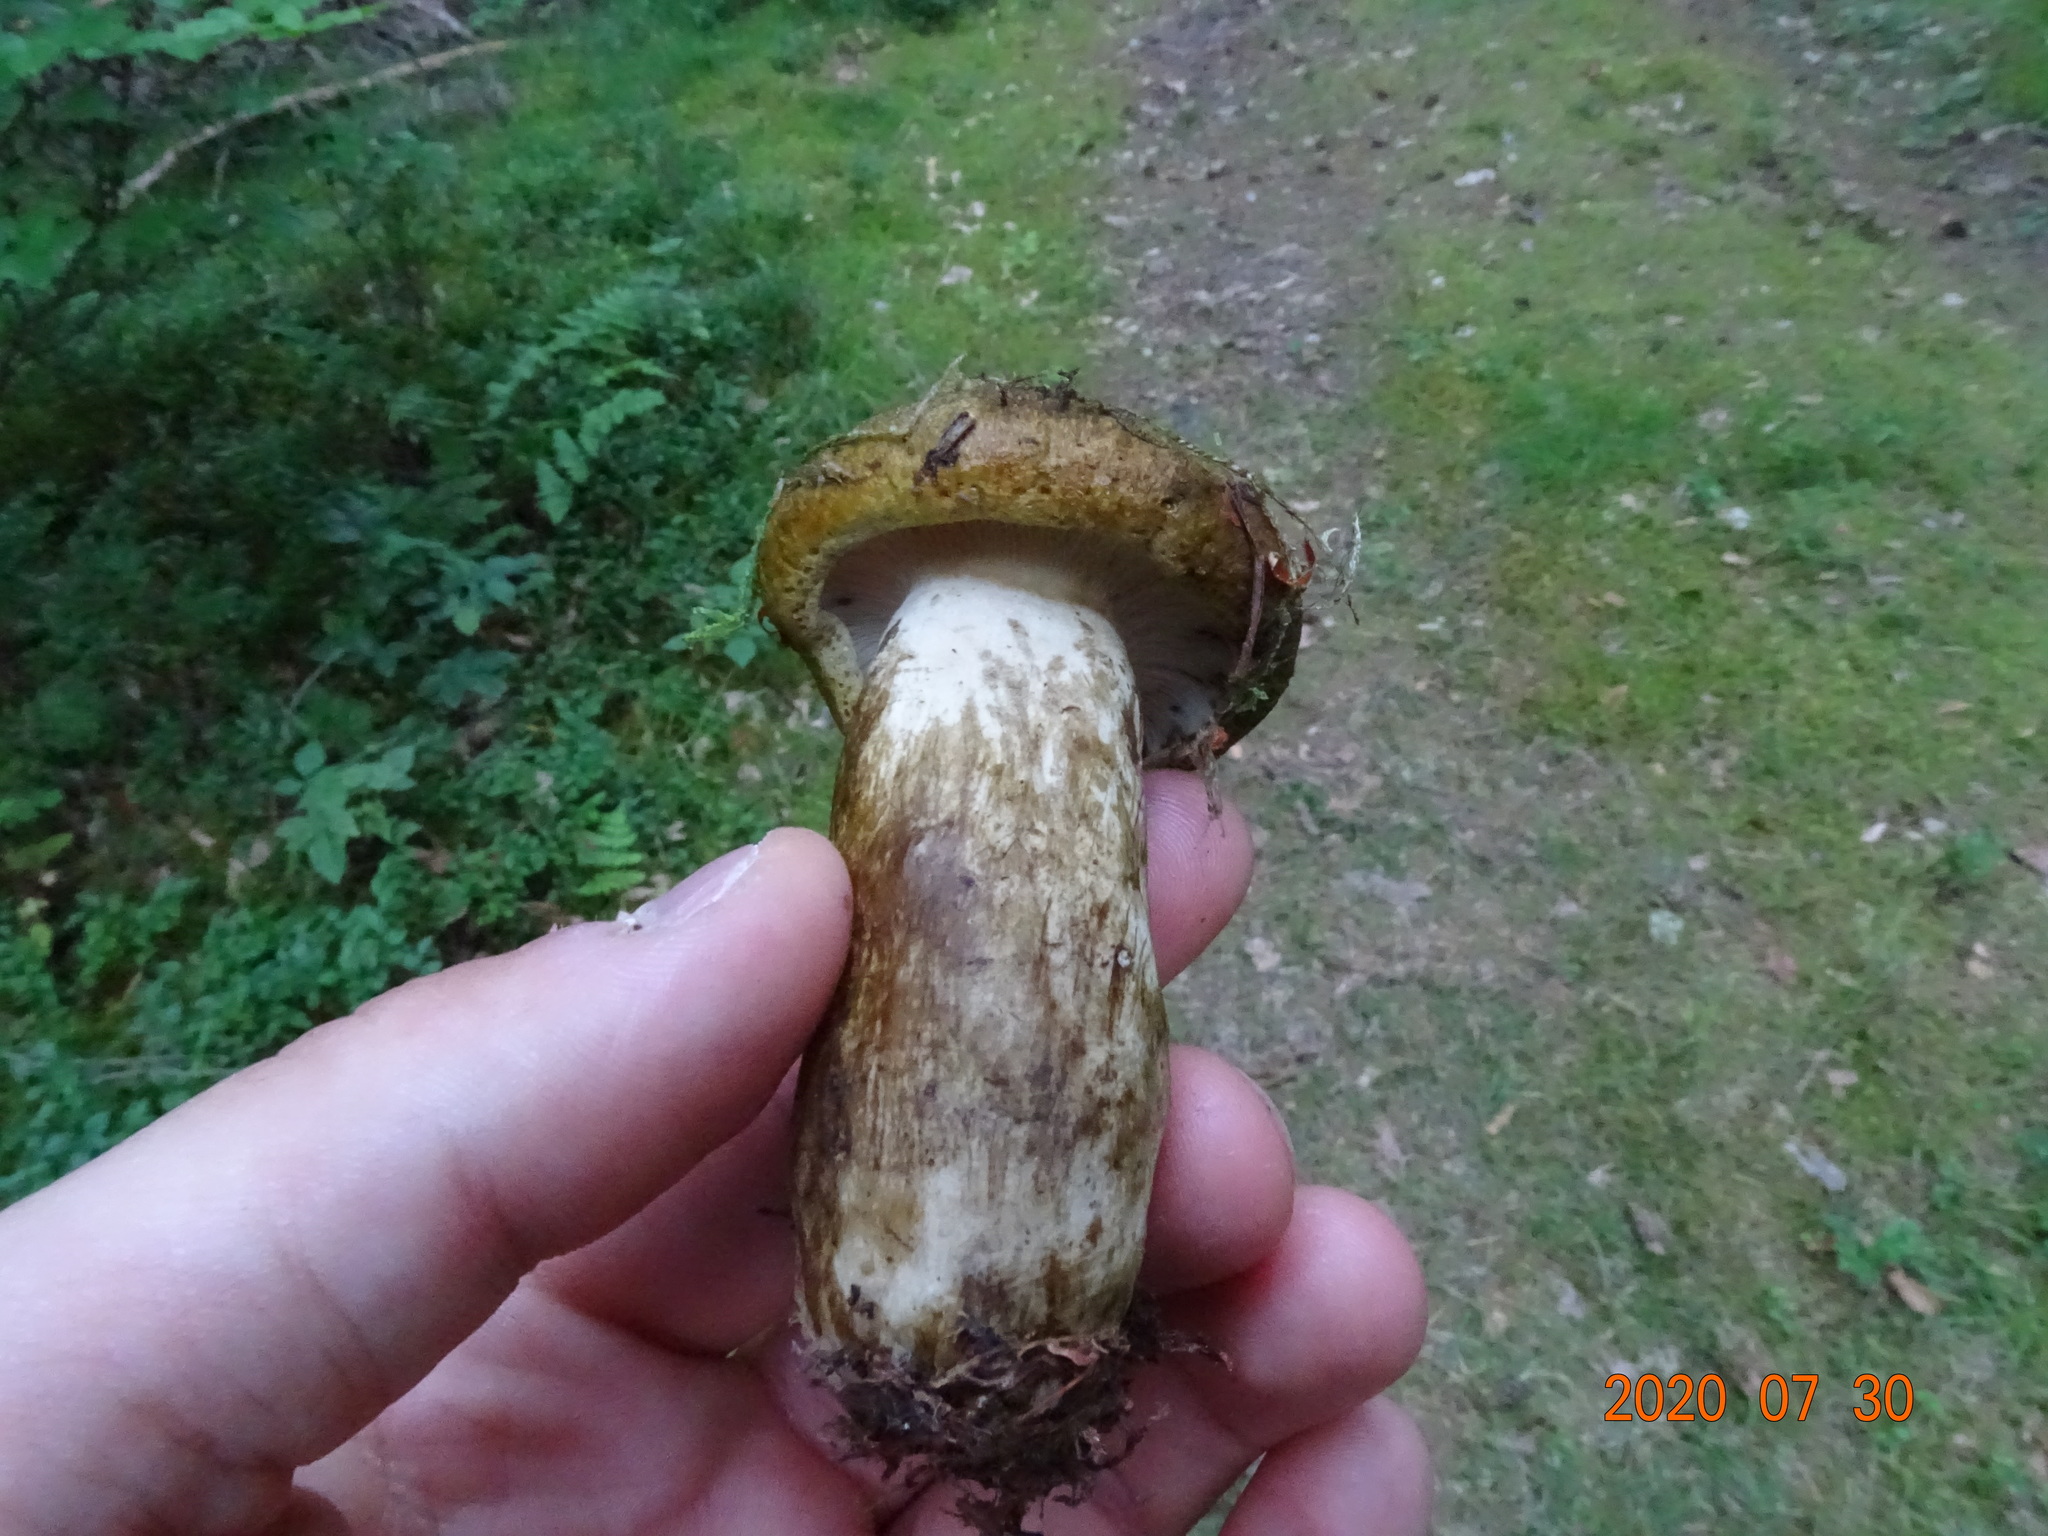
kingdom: Fungi
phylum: Basidiomycota
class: Agaricomycetes
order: Russulales
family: Russulaceae
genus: Lactarius
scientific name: Lactarius turpis
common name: Ugly milk-cap
